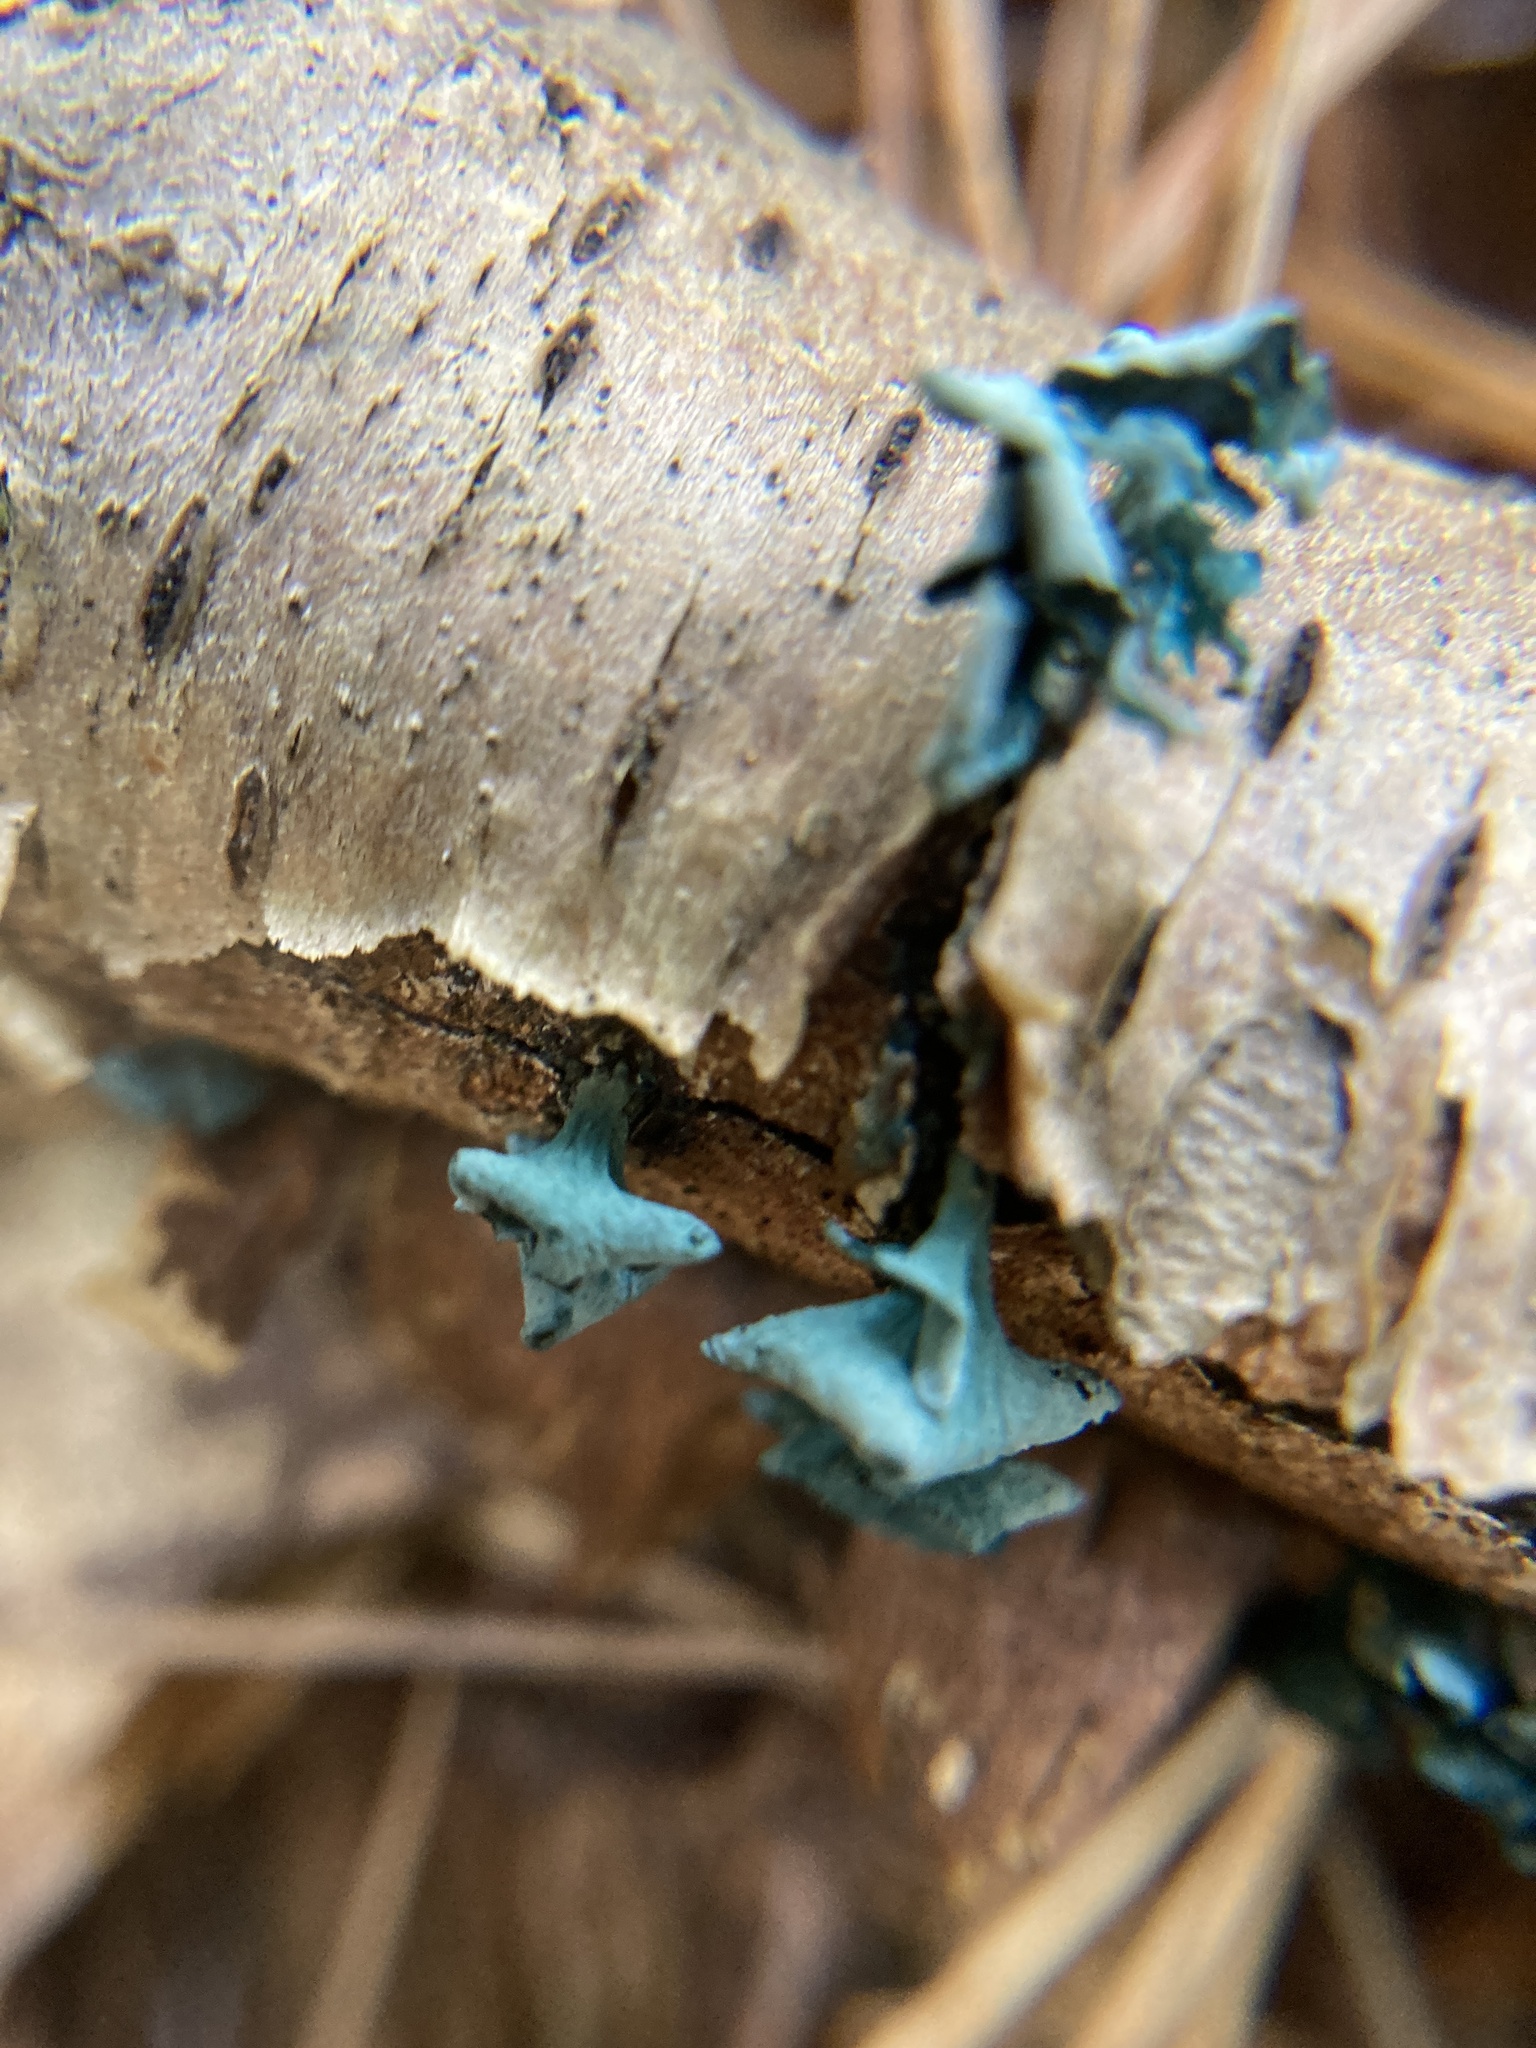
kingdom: Fungi
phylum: Ascomycota
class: Leotiomycetes
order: Helotiales
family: Chlorociboriaceae
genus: Chlorociboria
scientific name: Chlorociboria aeruginascens
